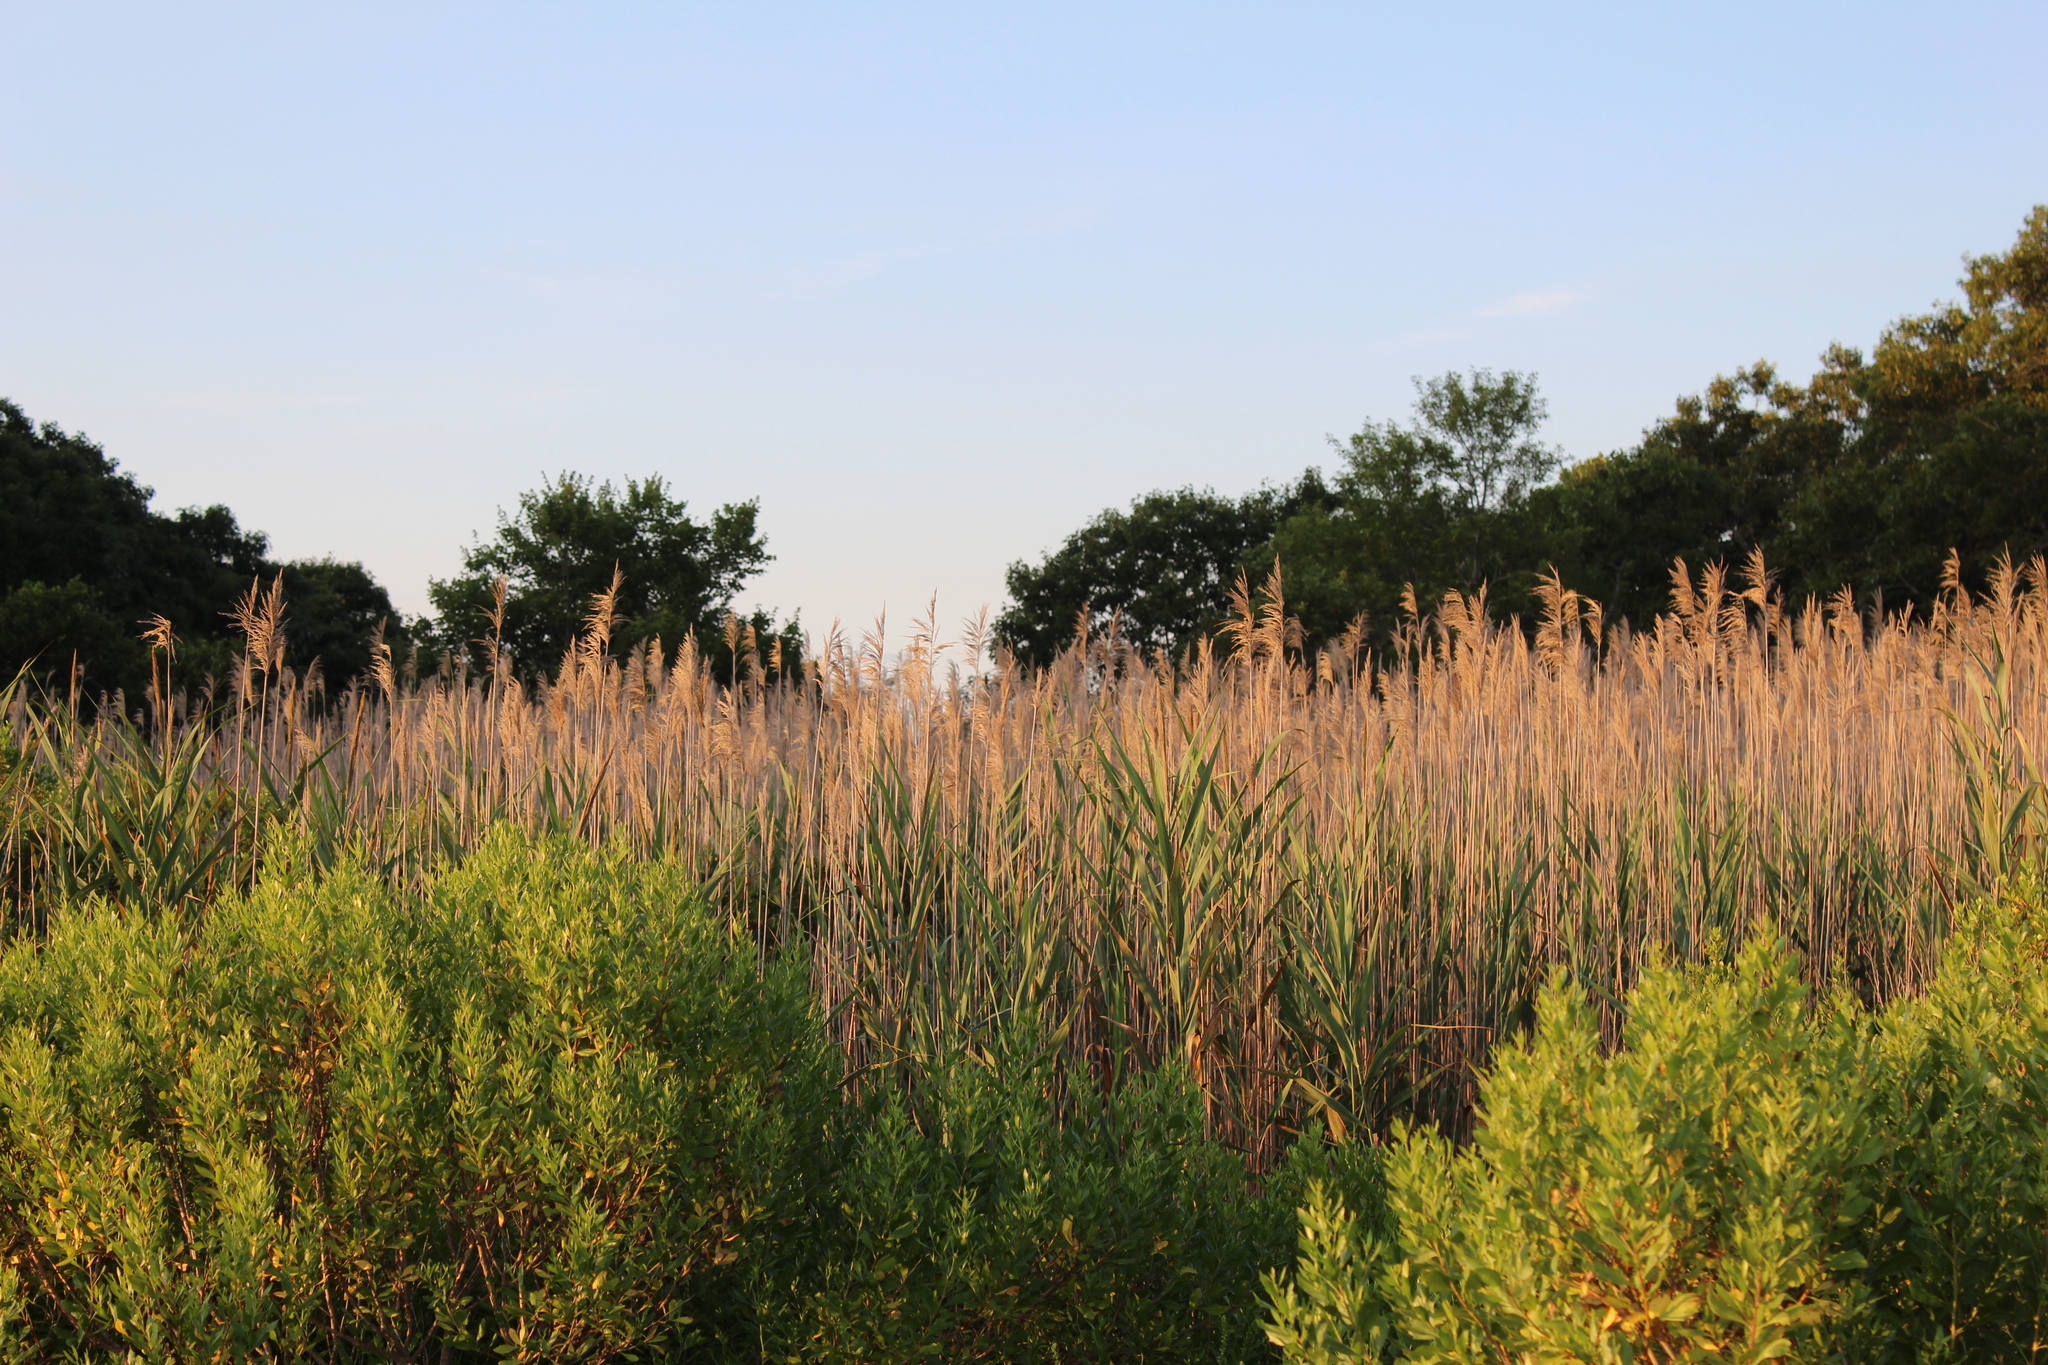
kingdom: Plantae
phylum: Tracheophyta
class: Liliopsida
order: Poales
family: Poaceae
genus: Phragmites
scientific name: Phragmites australis
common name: Common reed
